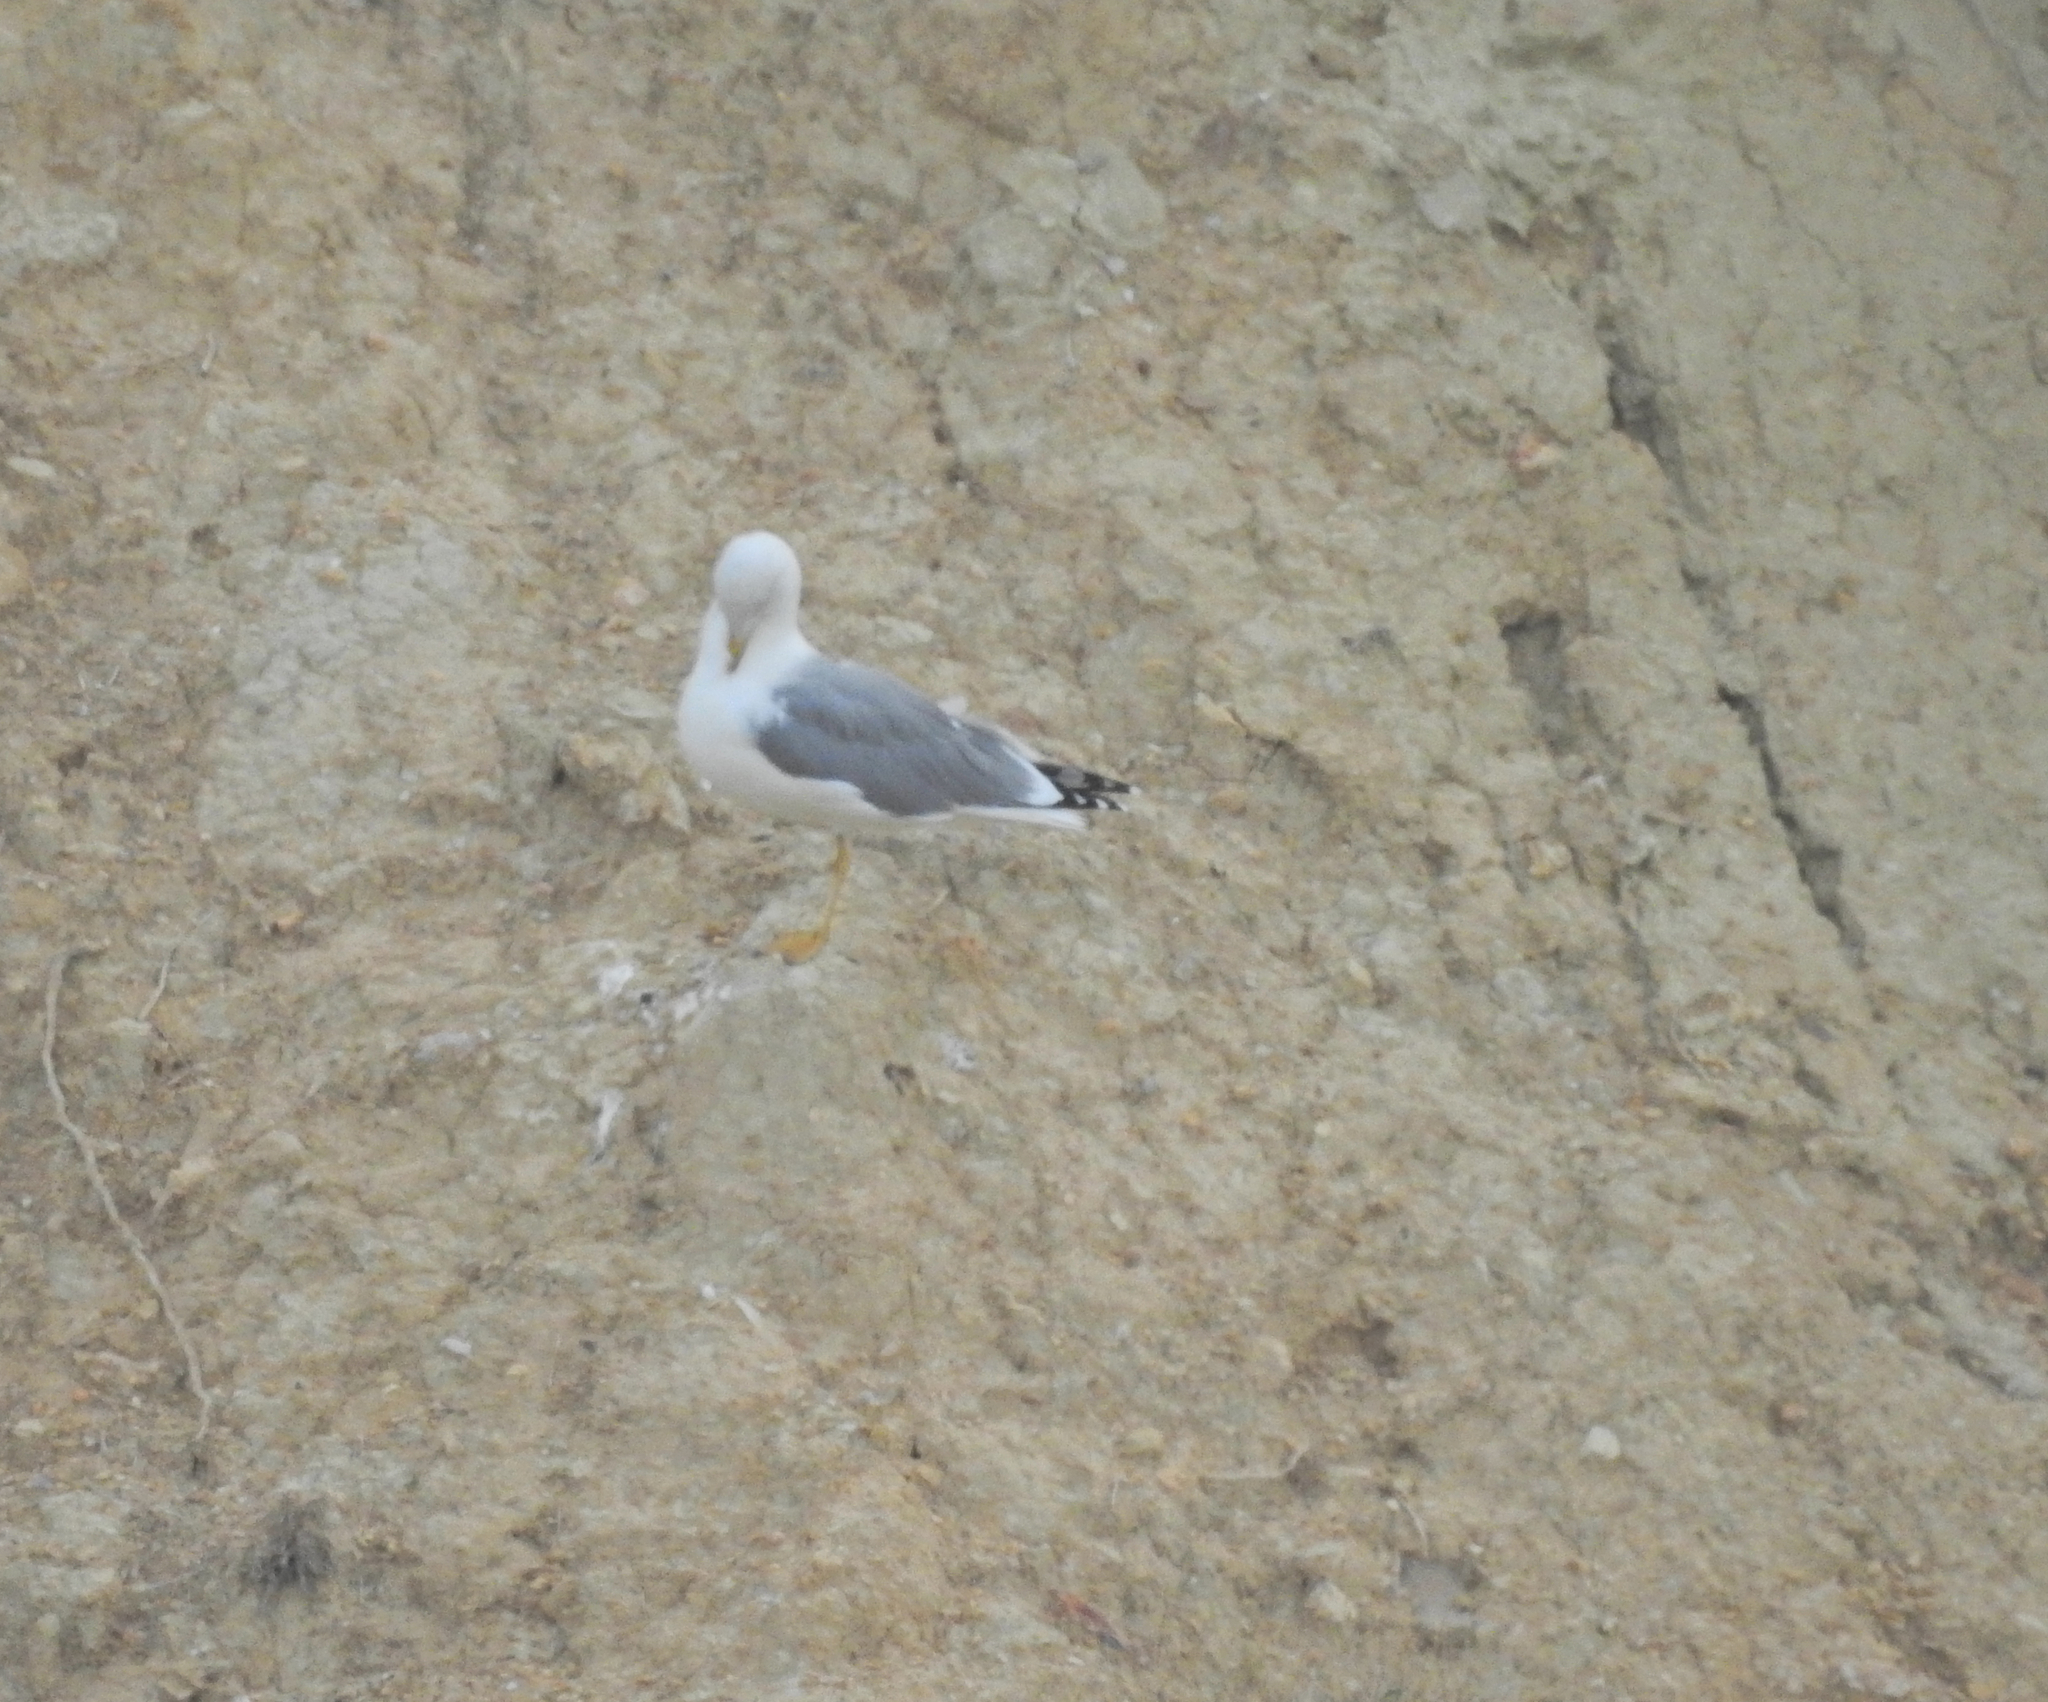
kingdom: Animalia
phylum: Chordata
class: Aves
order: Charadriiformes
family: Laridae
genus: Larus
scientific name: Larus michahellis
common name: Yellow-legged gull
